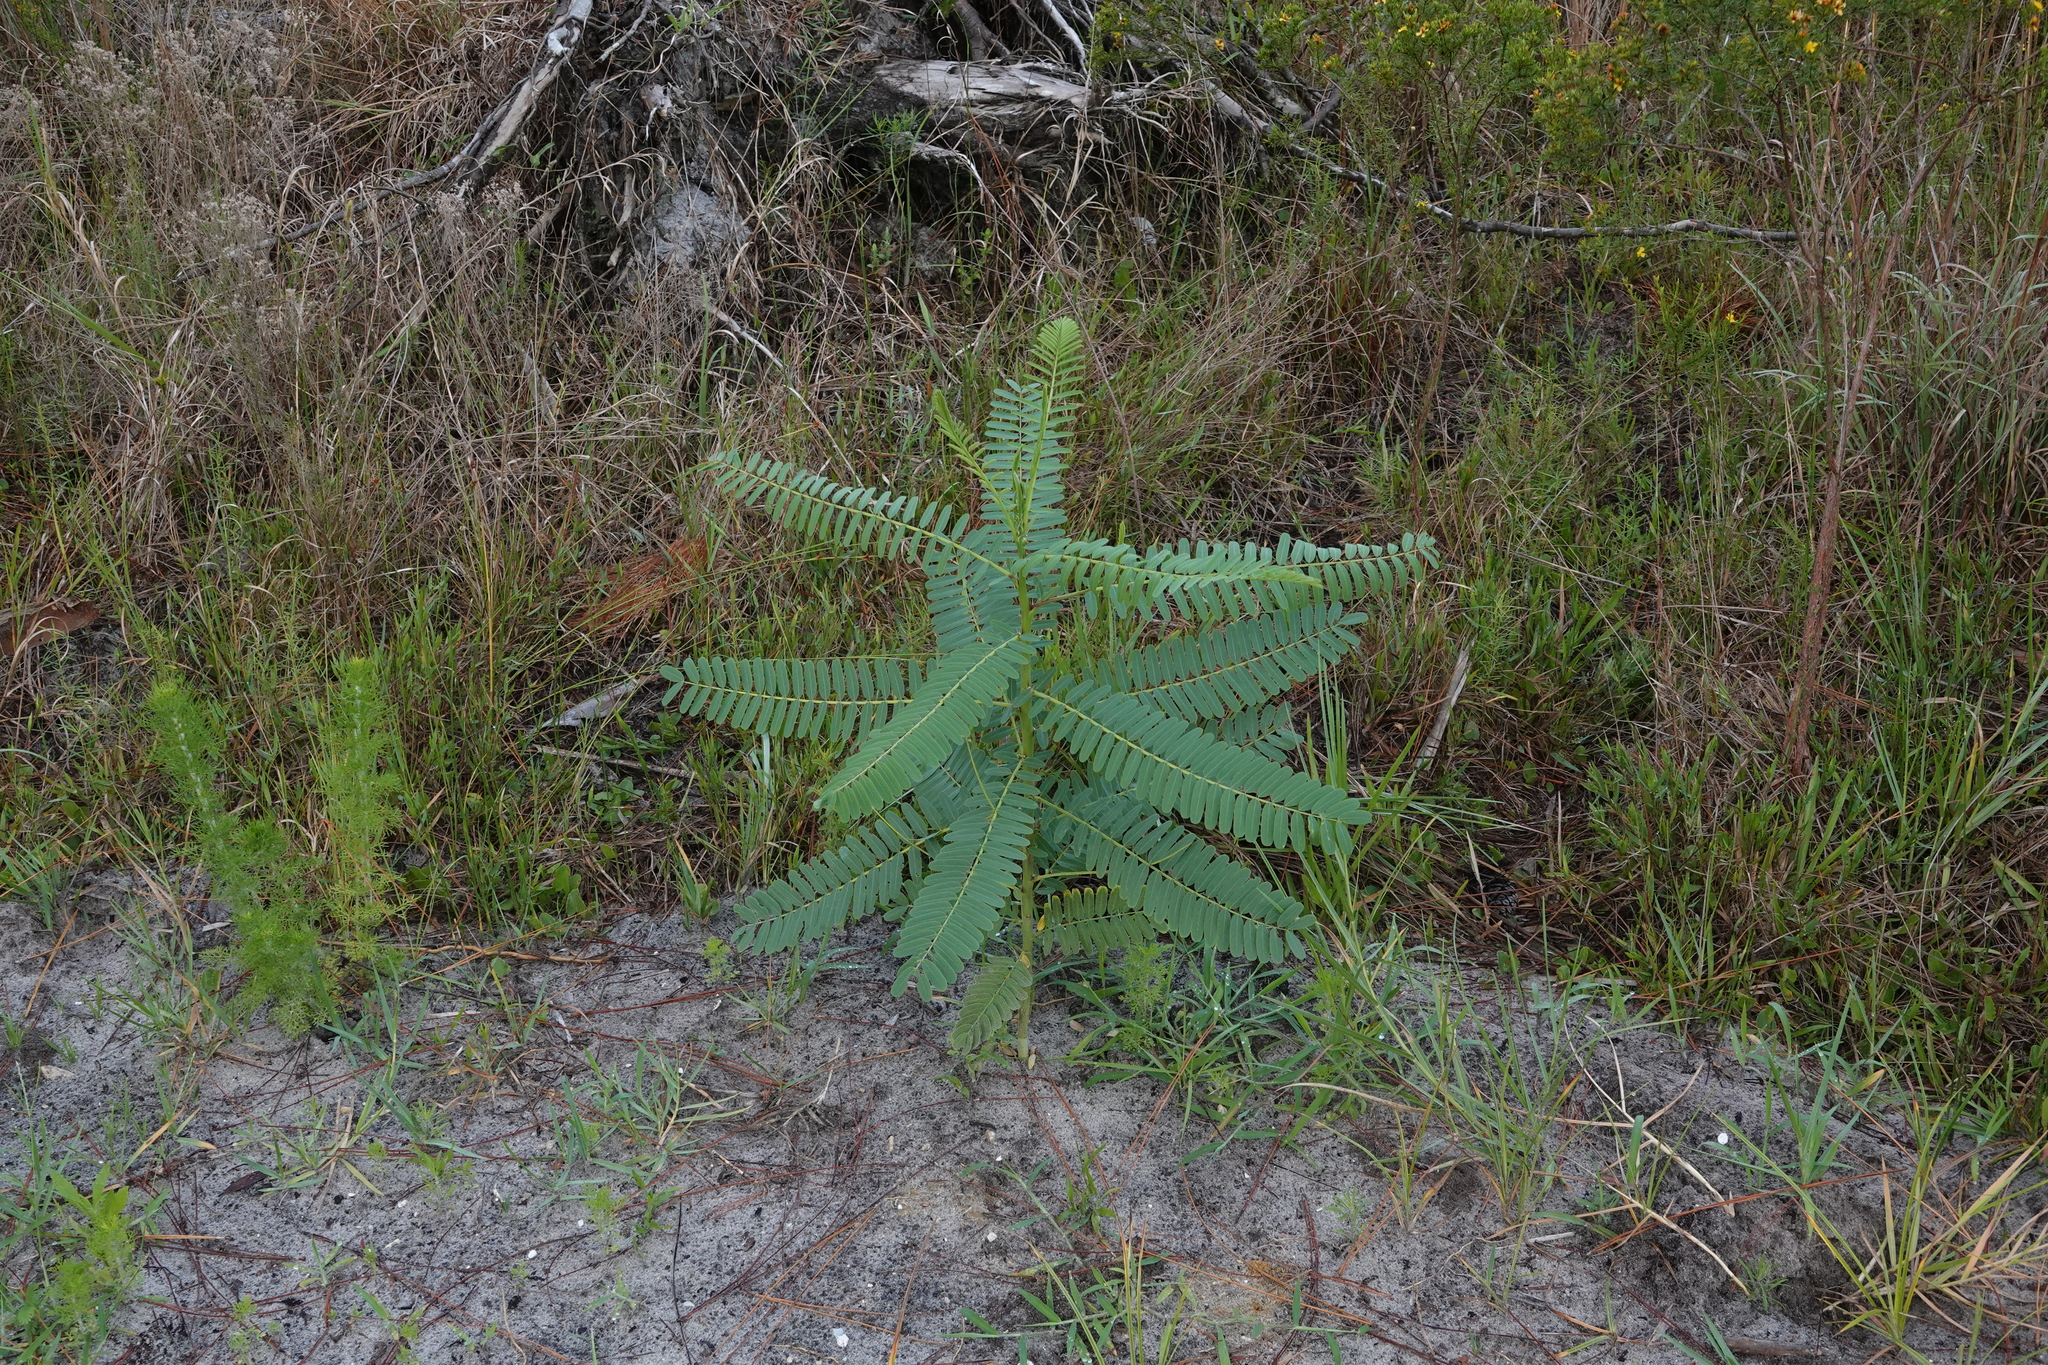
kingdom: Plantae
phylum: Tracheophyta
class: Magnoliopsida
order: Fabales
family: Fabaceae
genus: Sesbania
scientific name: Sesbania vesicaria
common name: Bagpod
